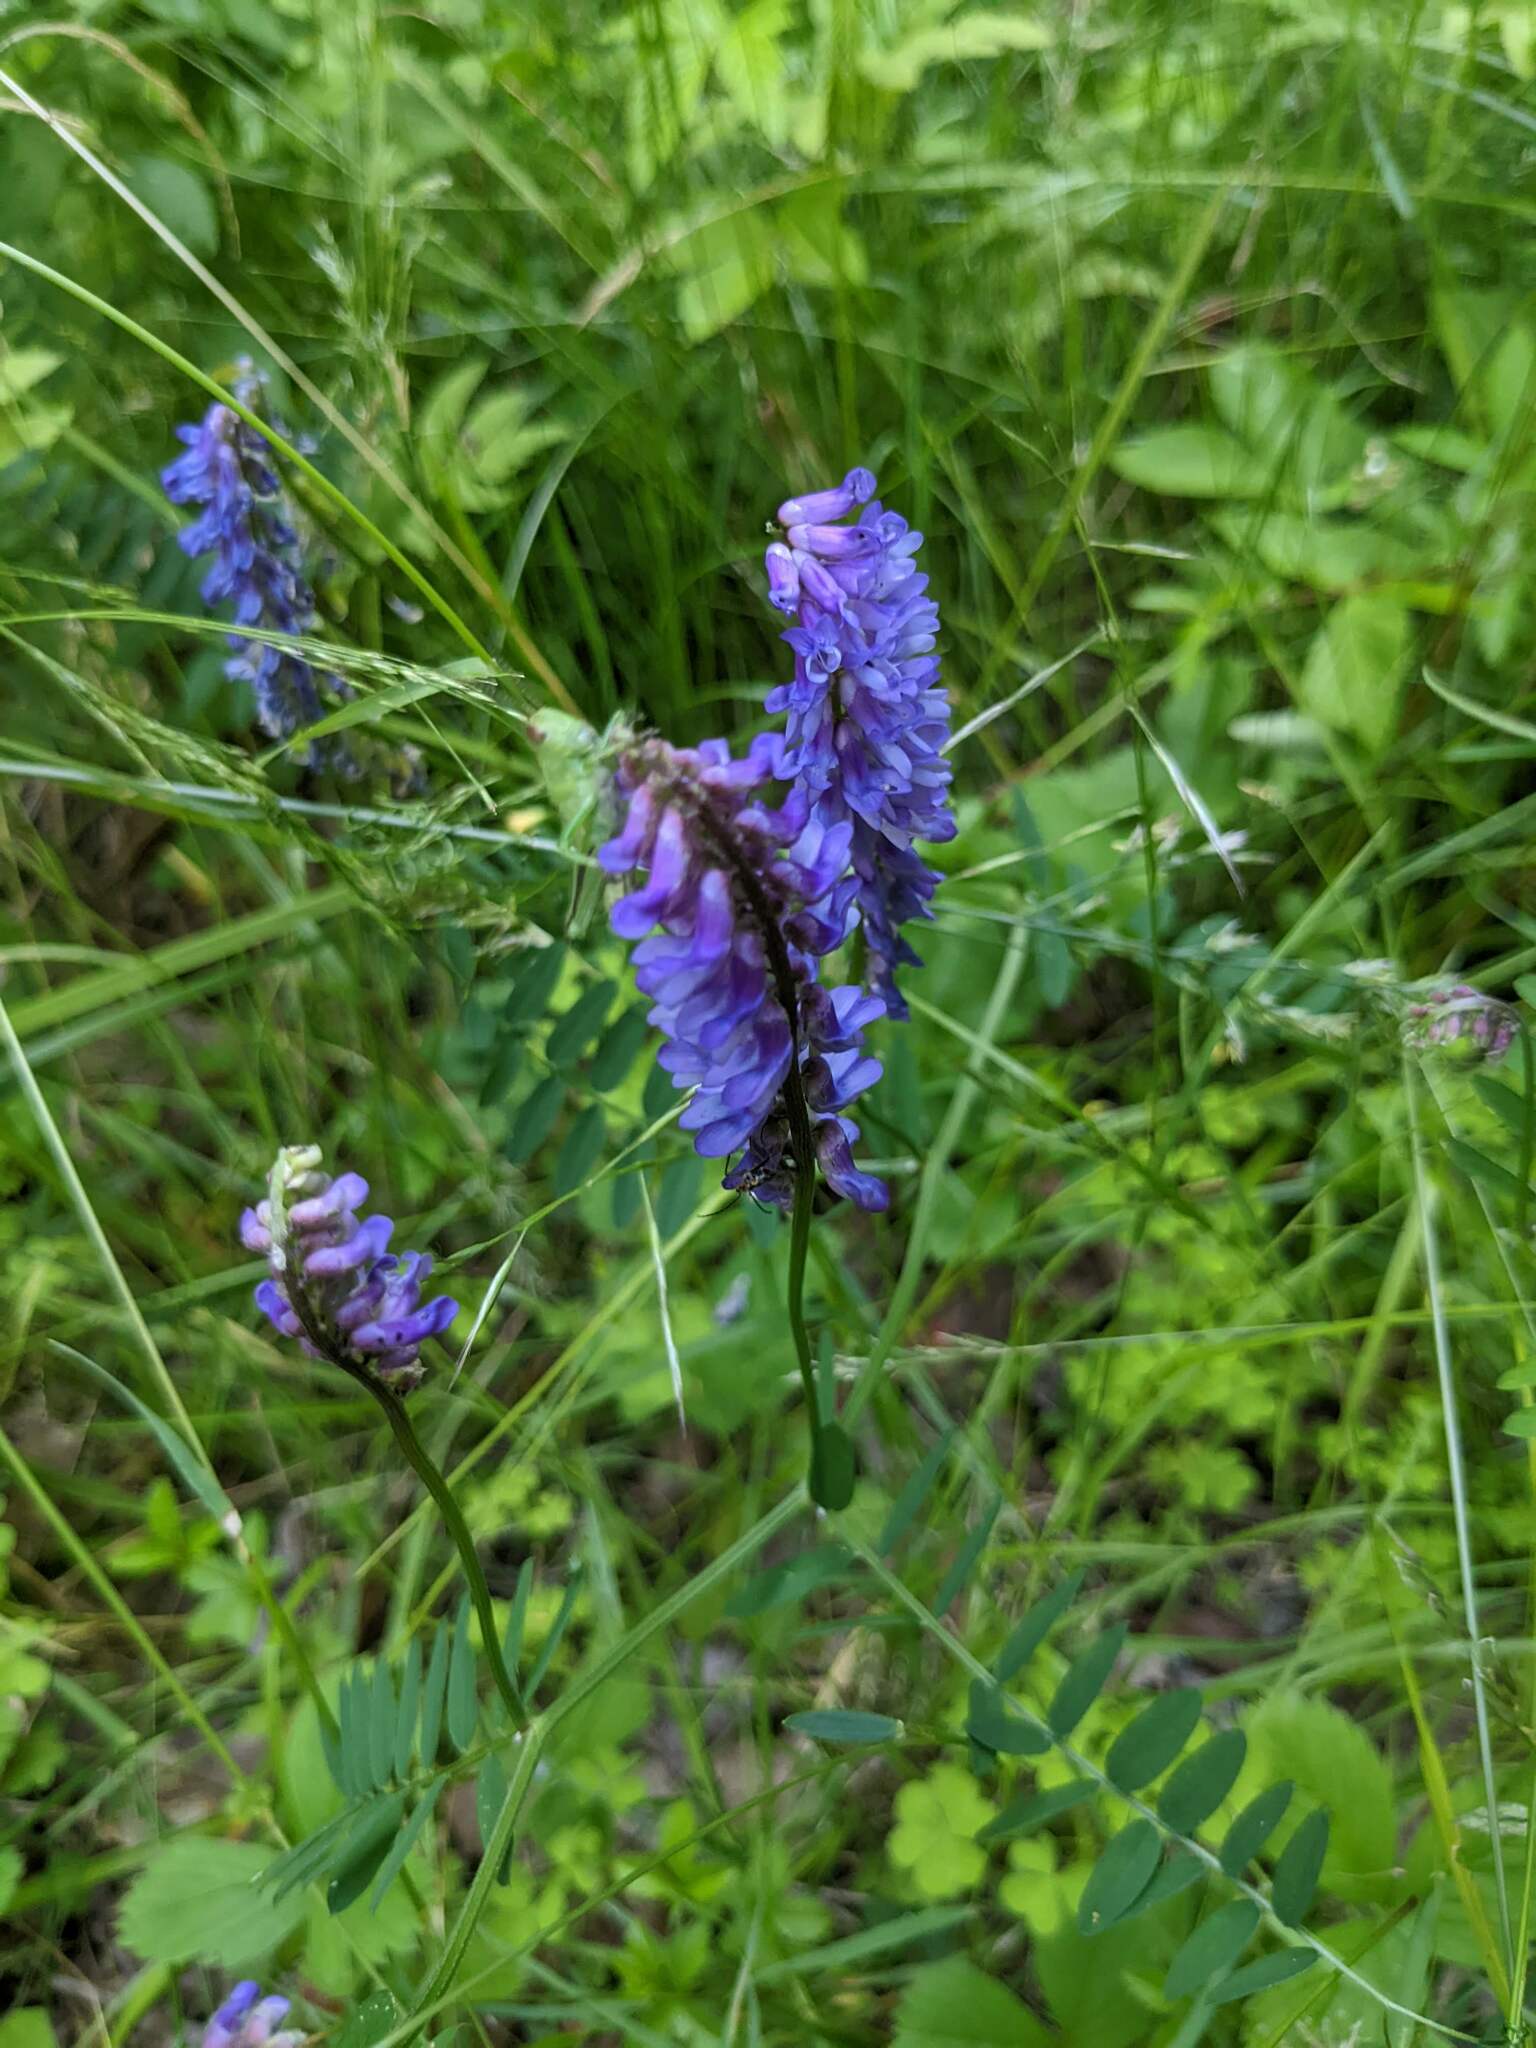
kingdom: Plantae
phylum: Tracheophyta
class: Magnoliopsida
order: Fabales
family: Fabaceae
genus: Vicia
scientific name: Vicia cracca
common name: Bird vetch
